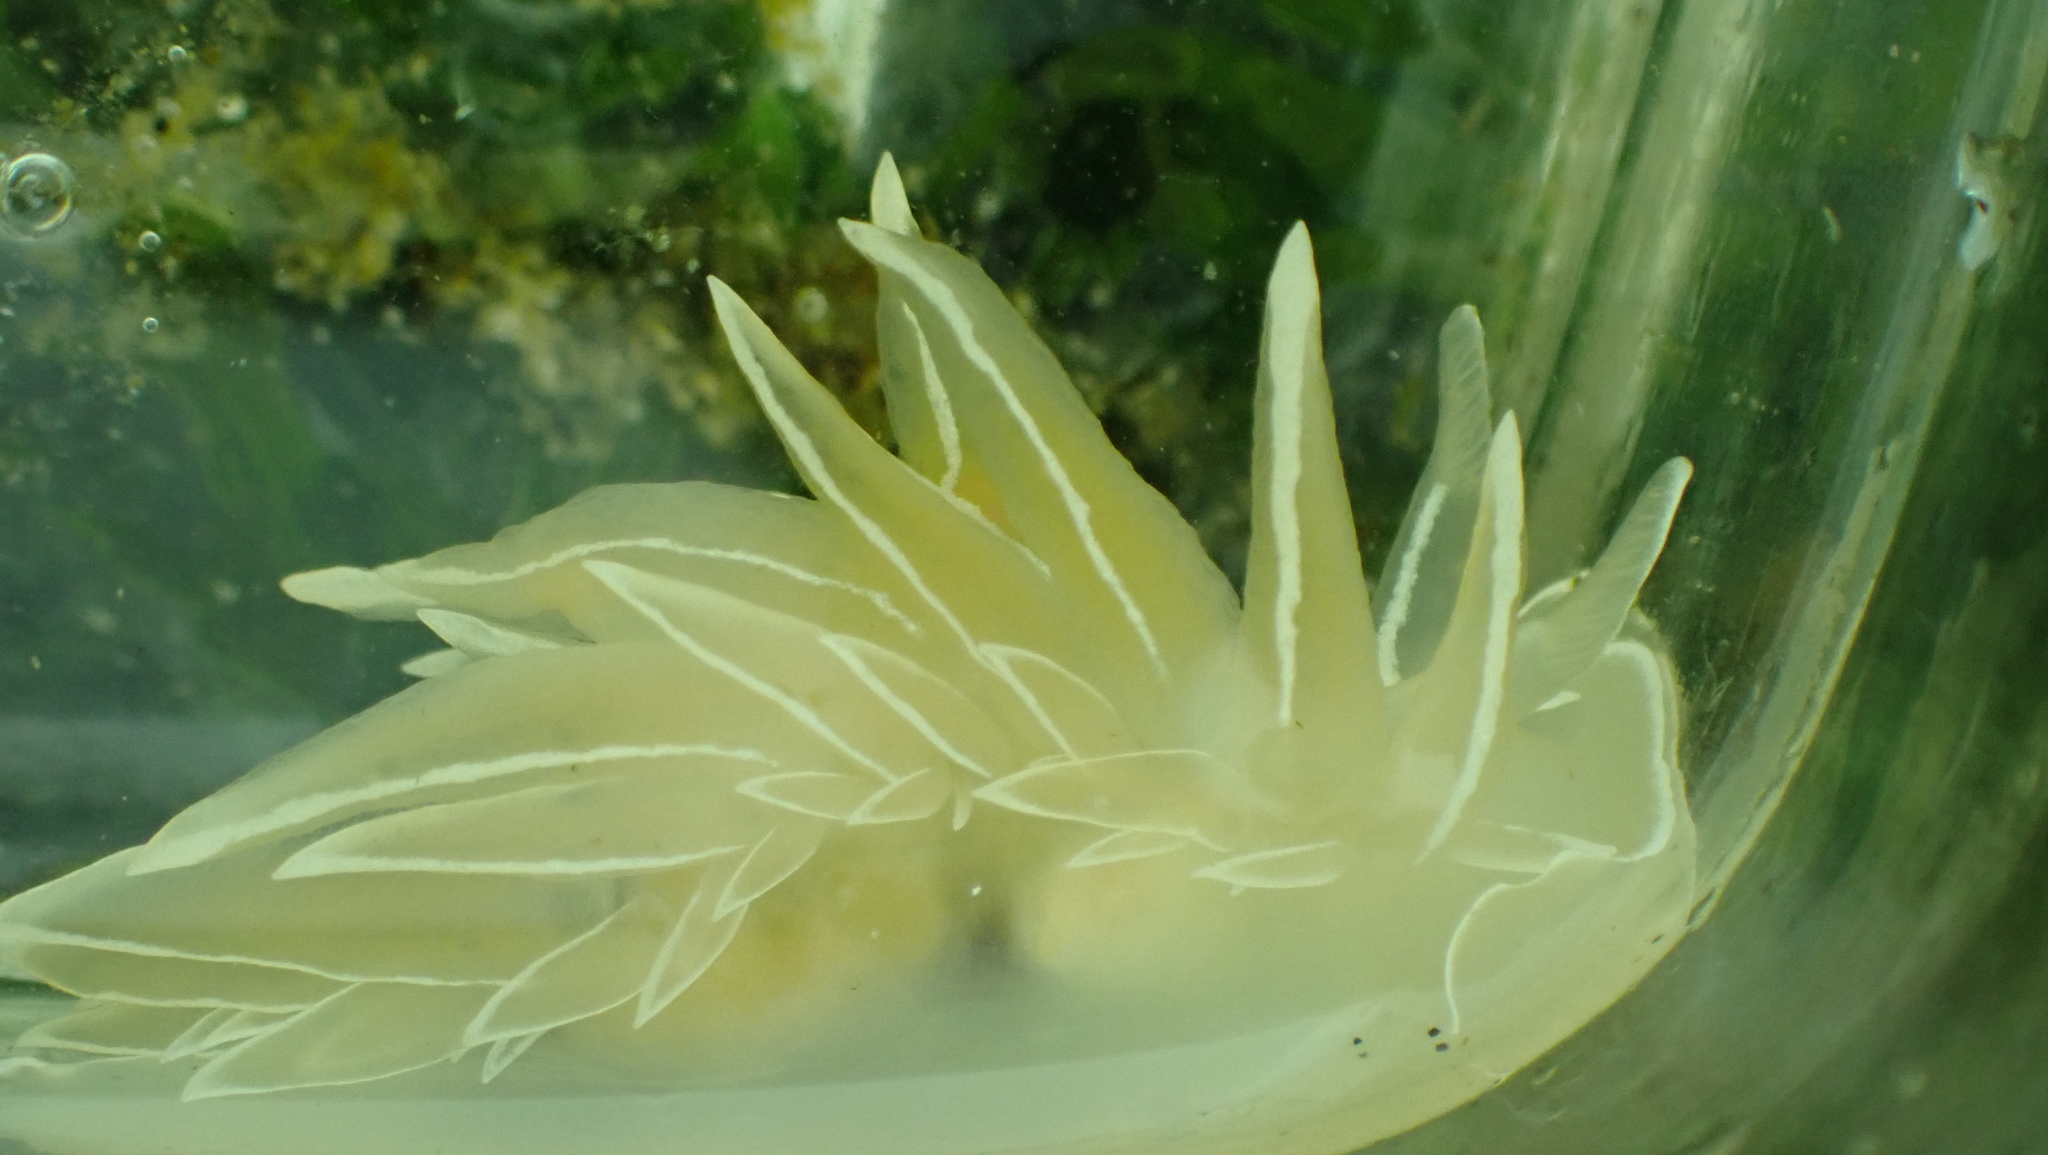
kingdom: Animalia
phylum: Mollusca
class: Gastropoda
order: Nudibranchia
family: Dironidae
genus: Dirona
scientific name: Dirona albolineata
